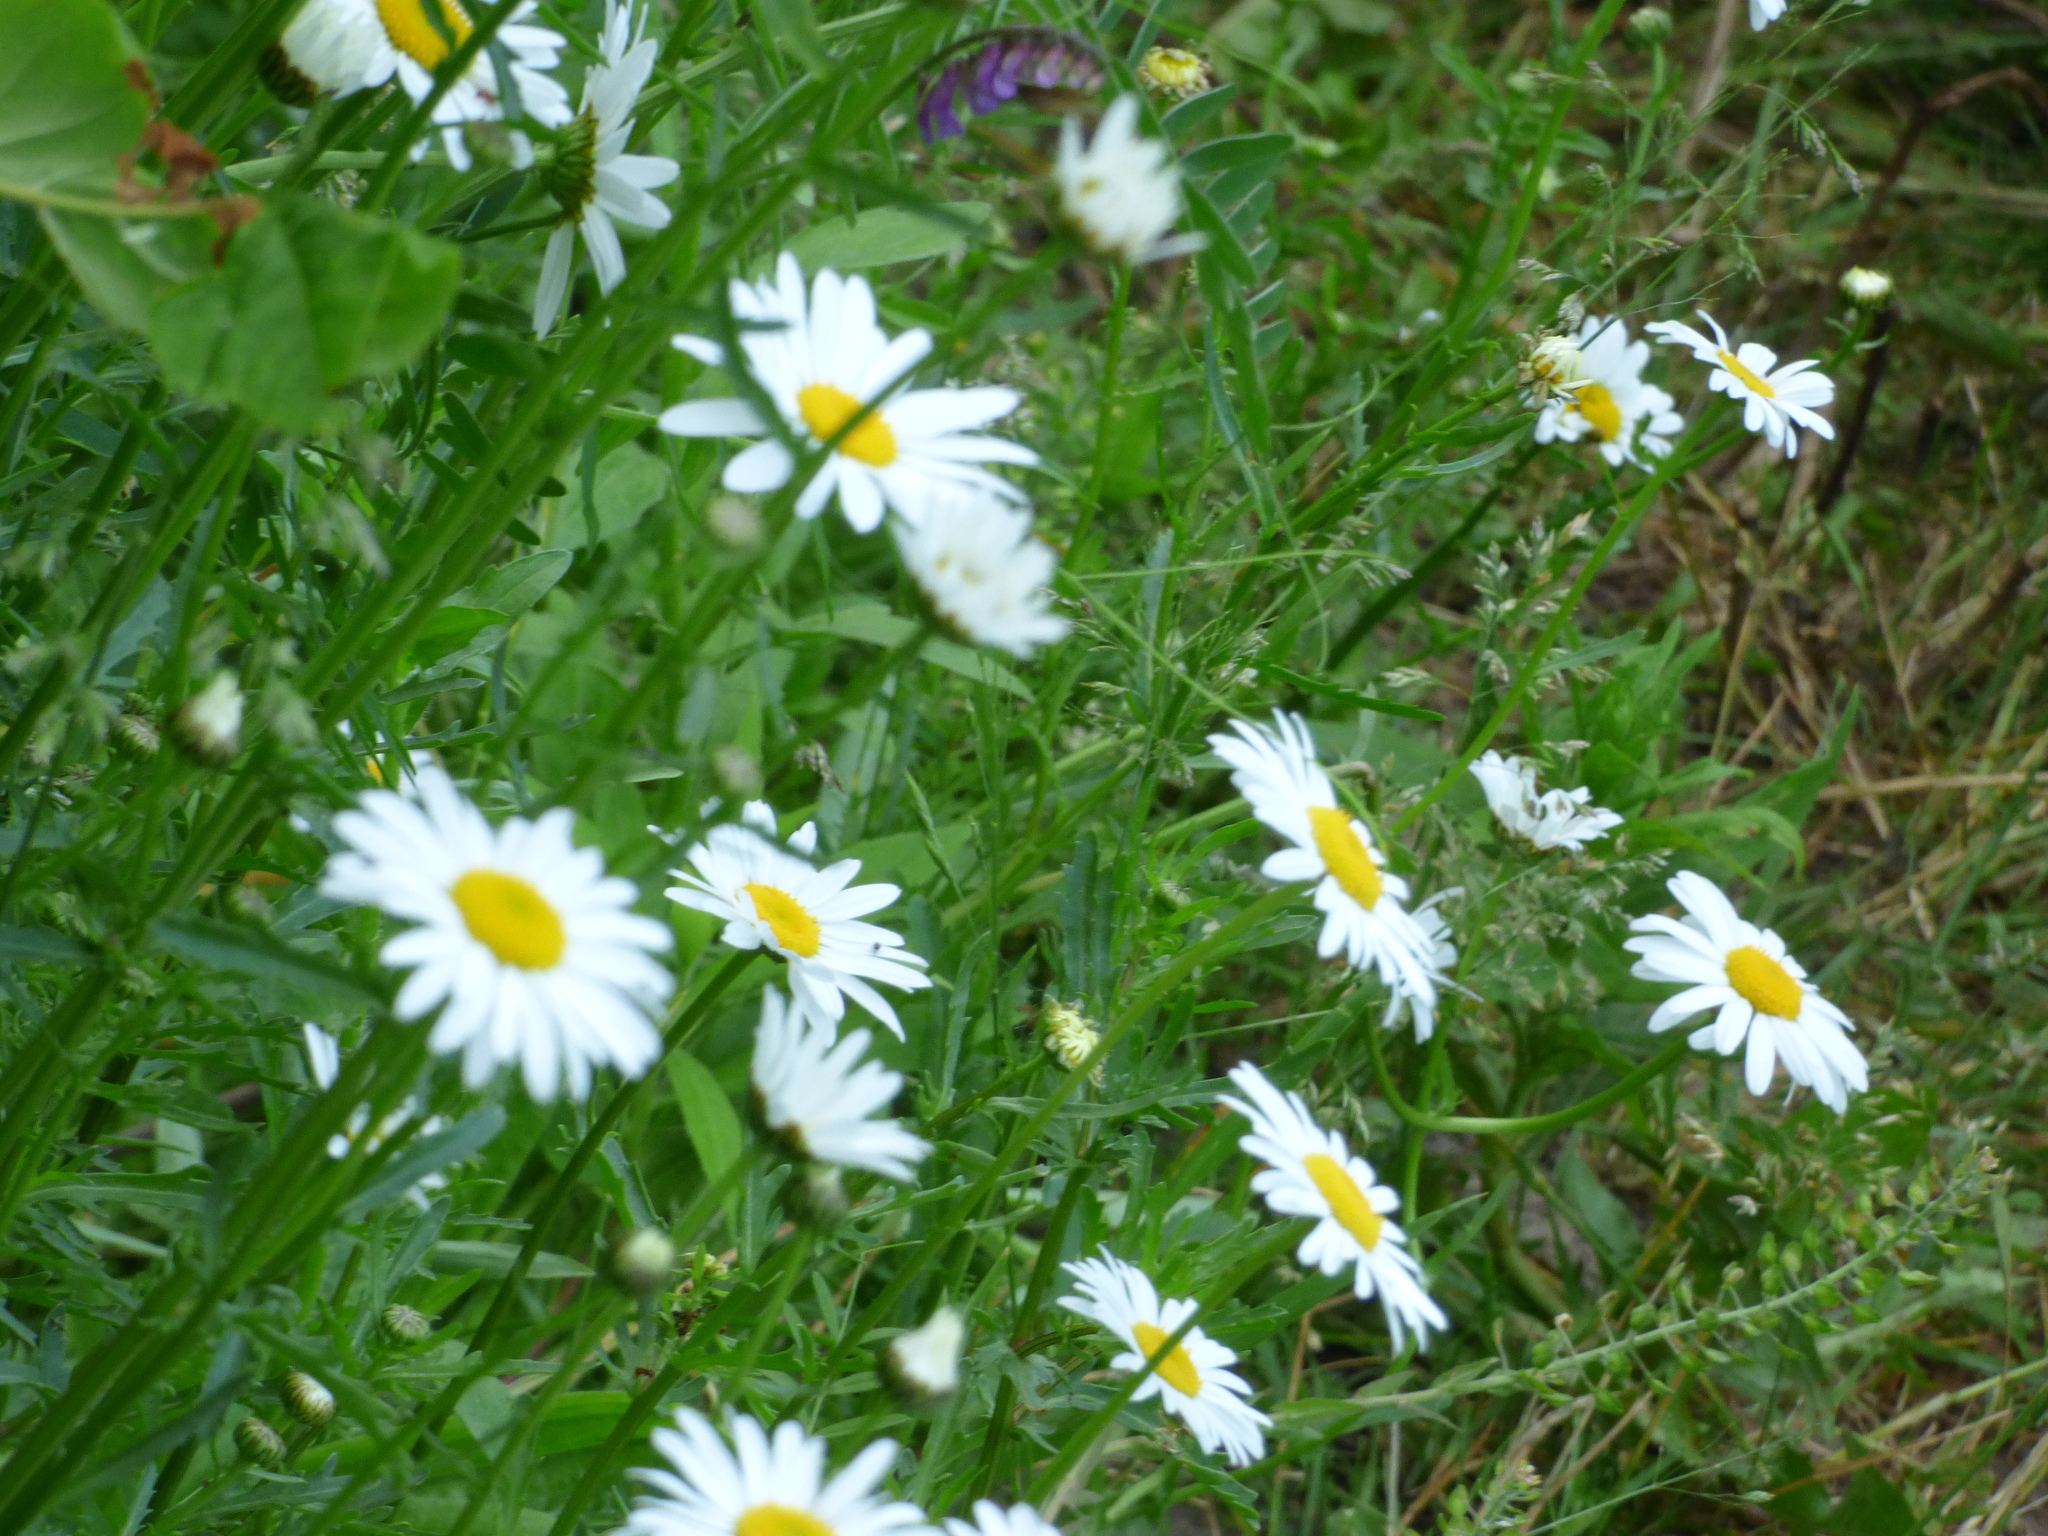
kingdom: Plantae
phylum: Tracheophyta
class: Magnoliopsida
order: Asterales
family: Asteraceae
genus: Leucanthemum
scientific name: Leucanthemum vulgare
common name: Oxeye daisy
